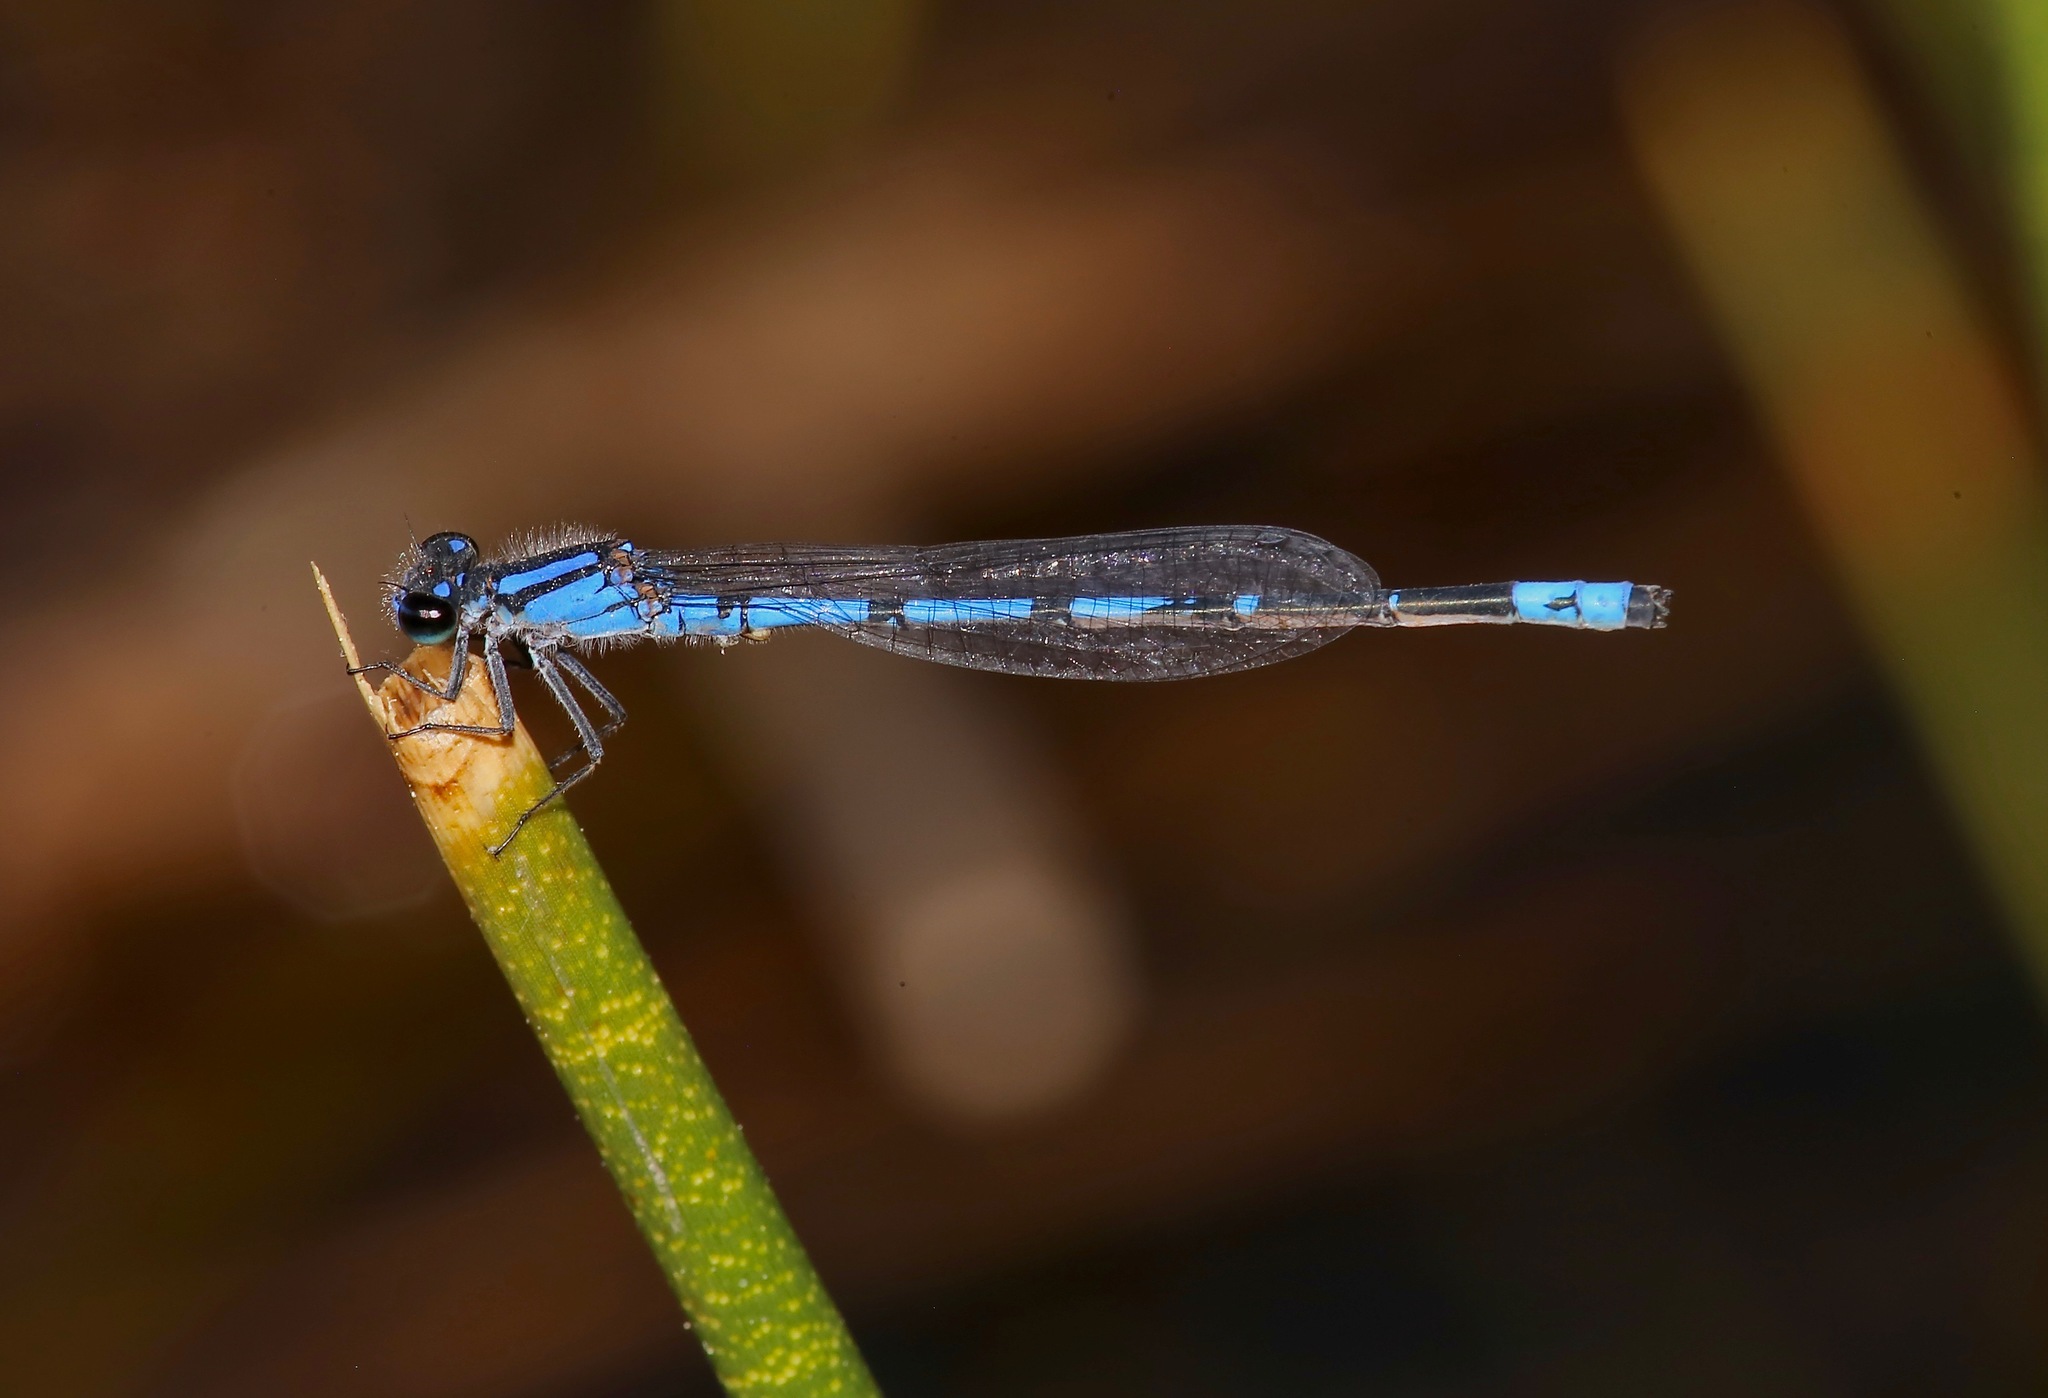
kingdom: Animalia
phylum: Arthropoda
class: Insecta
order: Odonata
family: Coenagrionidae
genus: Enallagma
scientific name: Enallagma davisi
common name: Sandhill bluet
